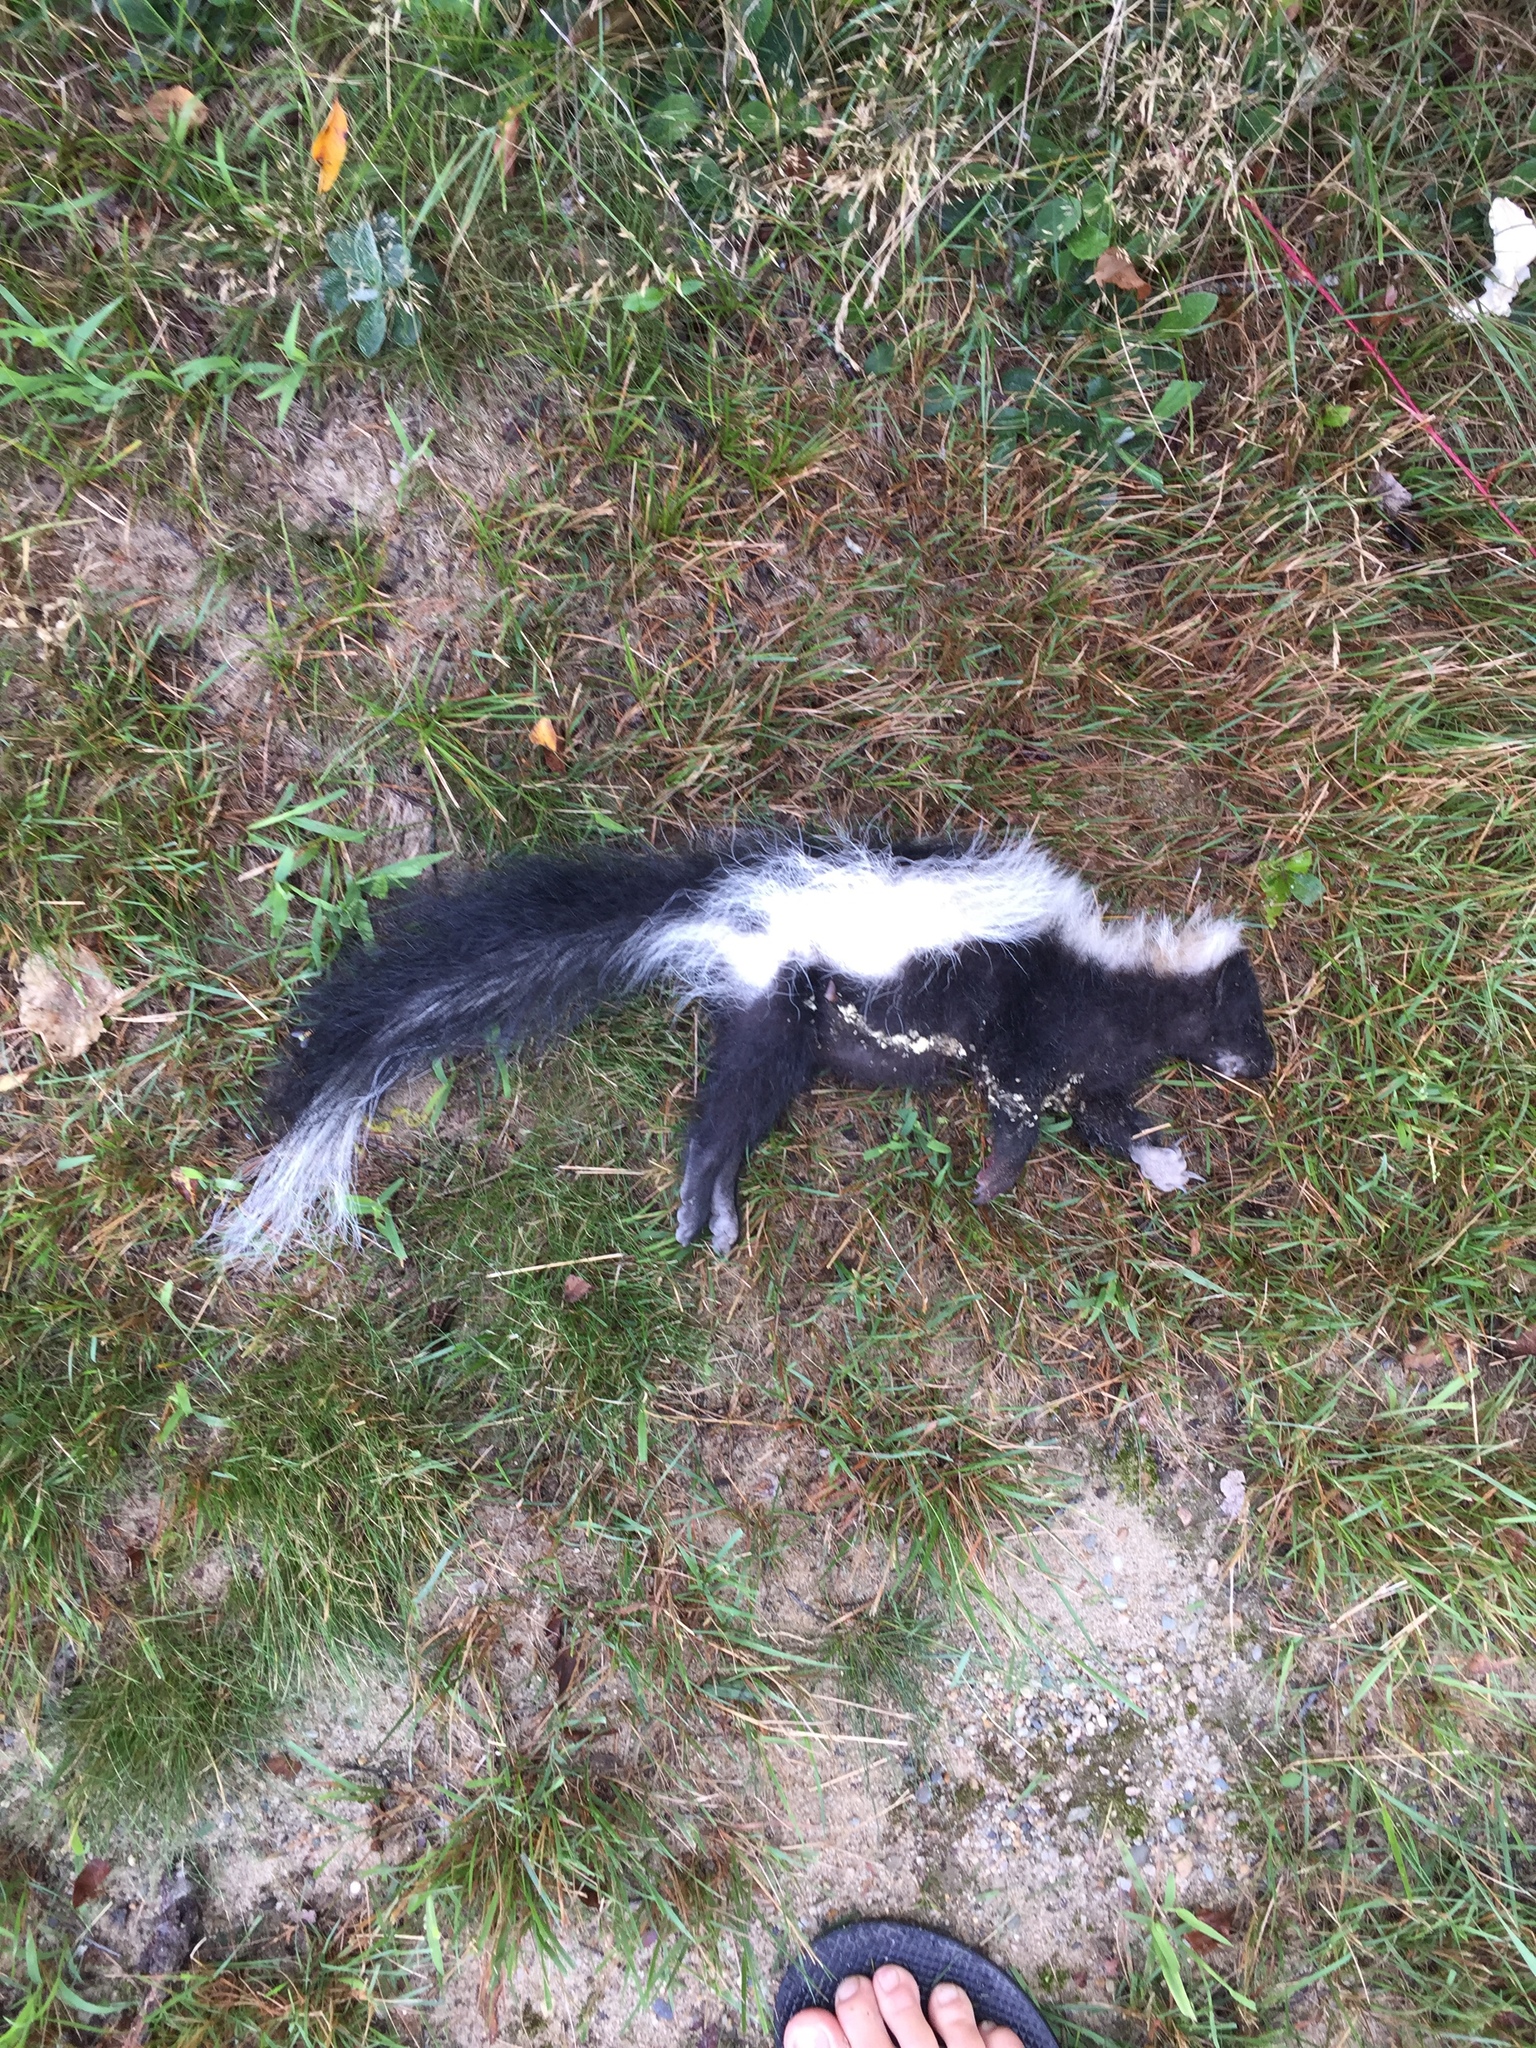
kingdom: Animalia
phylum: Chordata
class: Mammalia
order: Carnivora
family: Mephitidae
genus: Mephitis
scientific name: Mephitis mephitis
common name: Striped skunk
